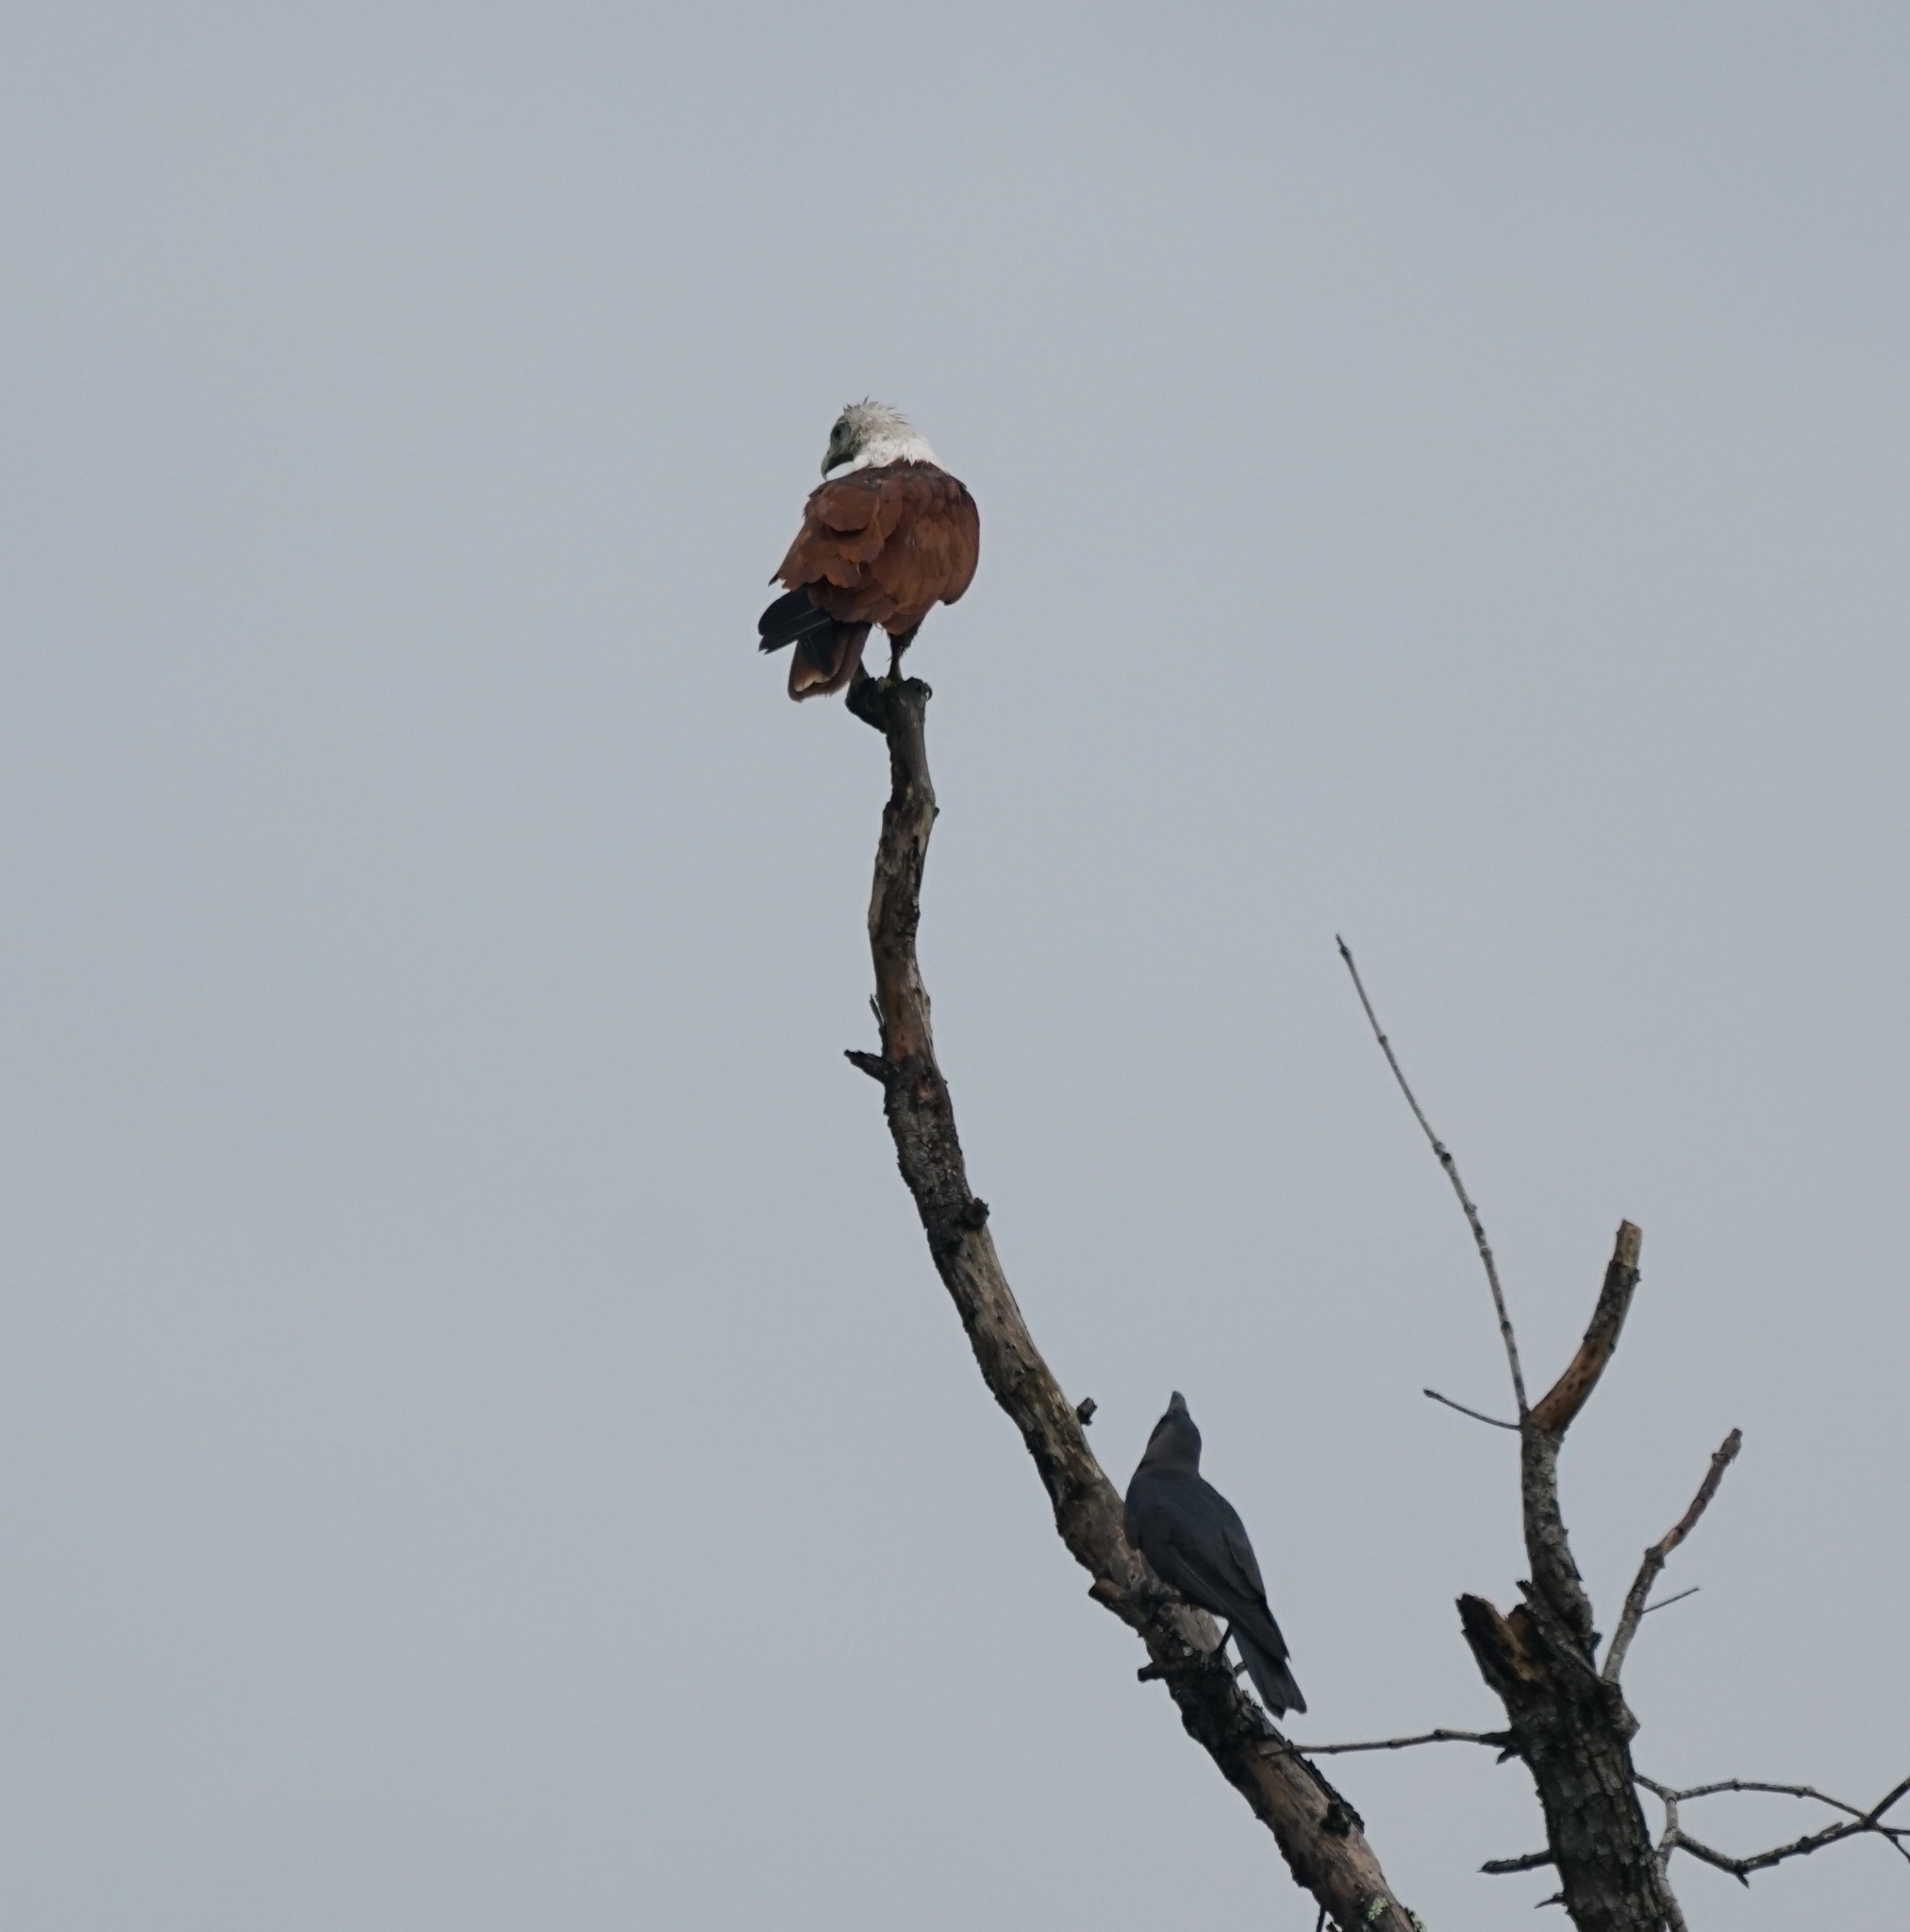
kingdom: Animalia
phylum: Chordata
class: Aves
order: Passeriformes
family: Corvidae
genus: Corvus
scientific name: Corvus splendens
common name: House crow
